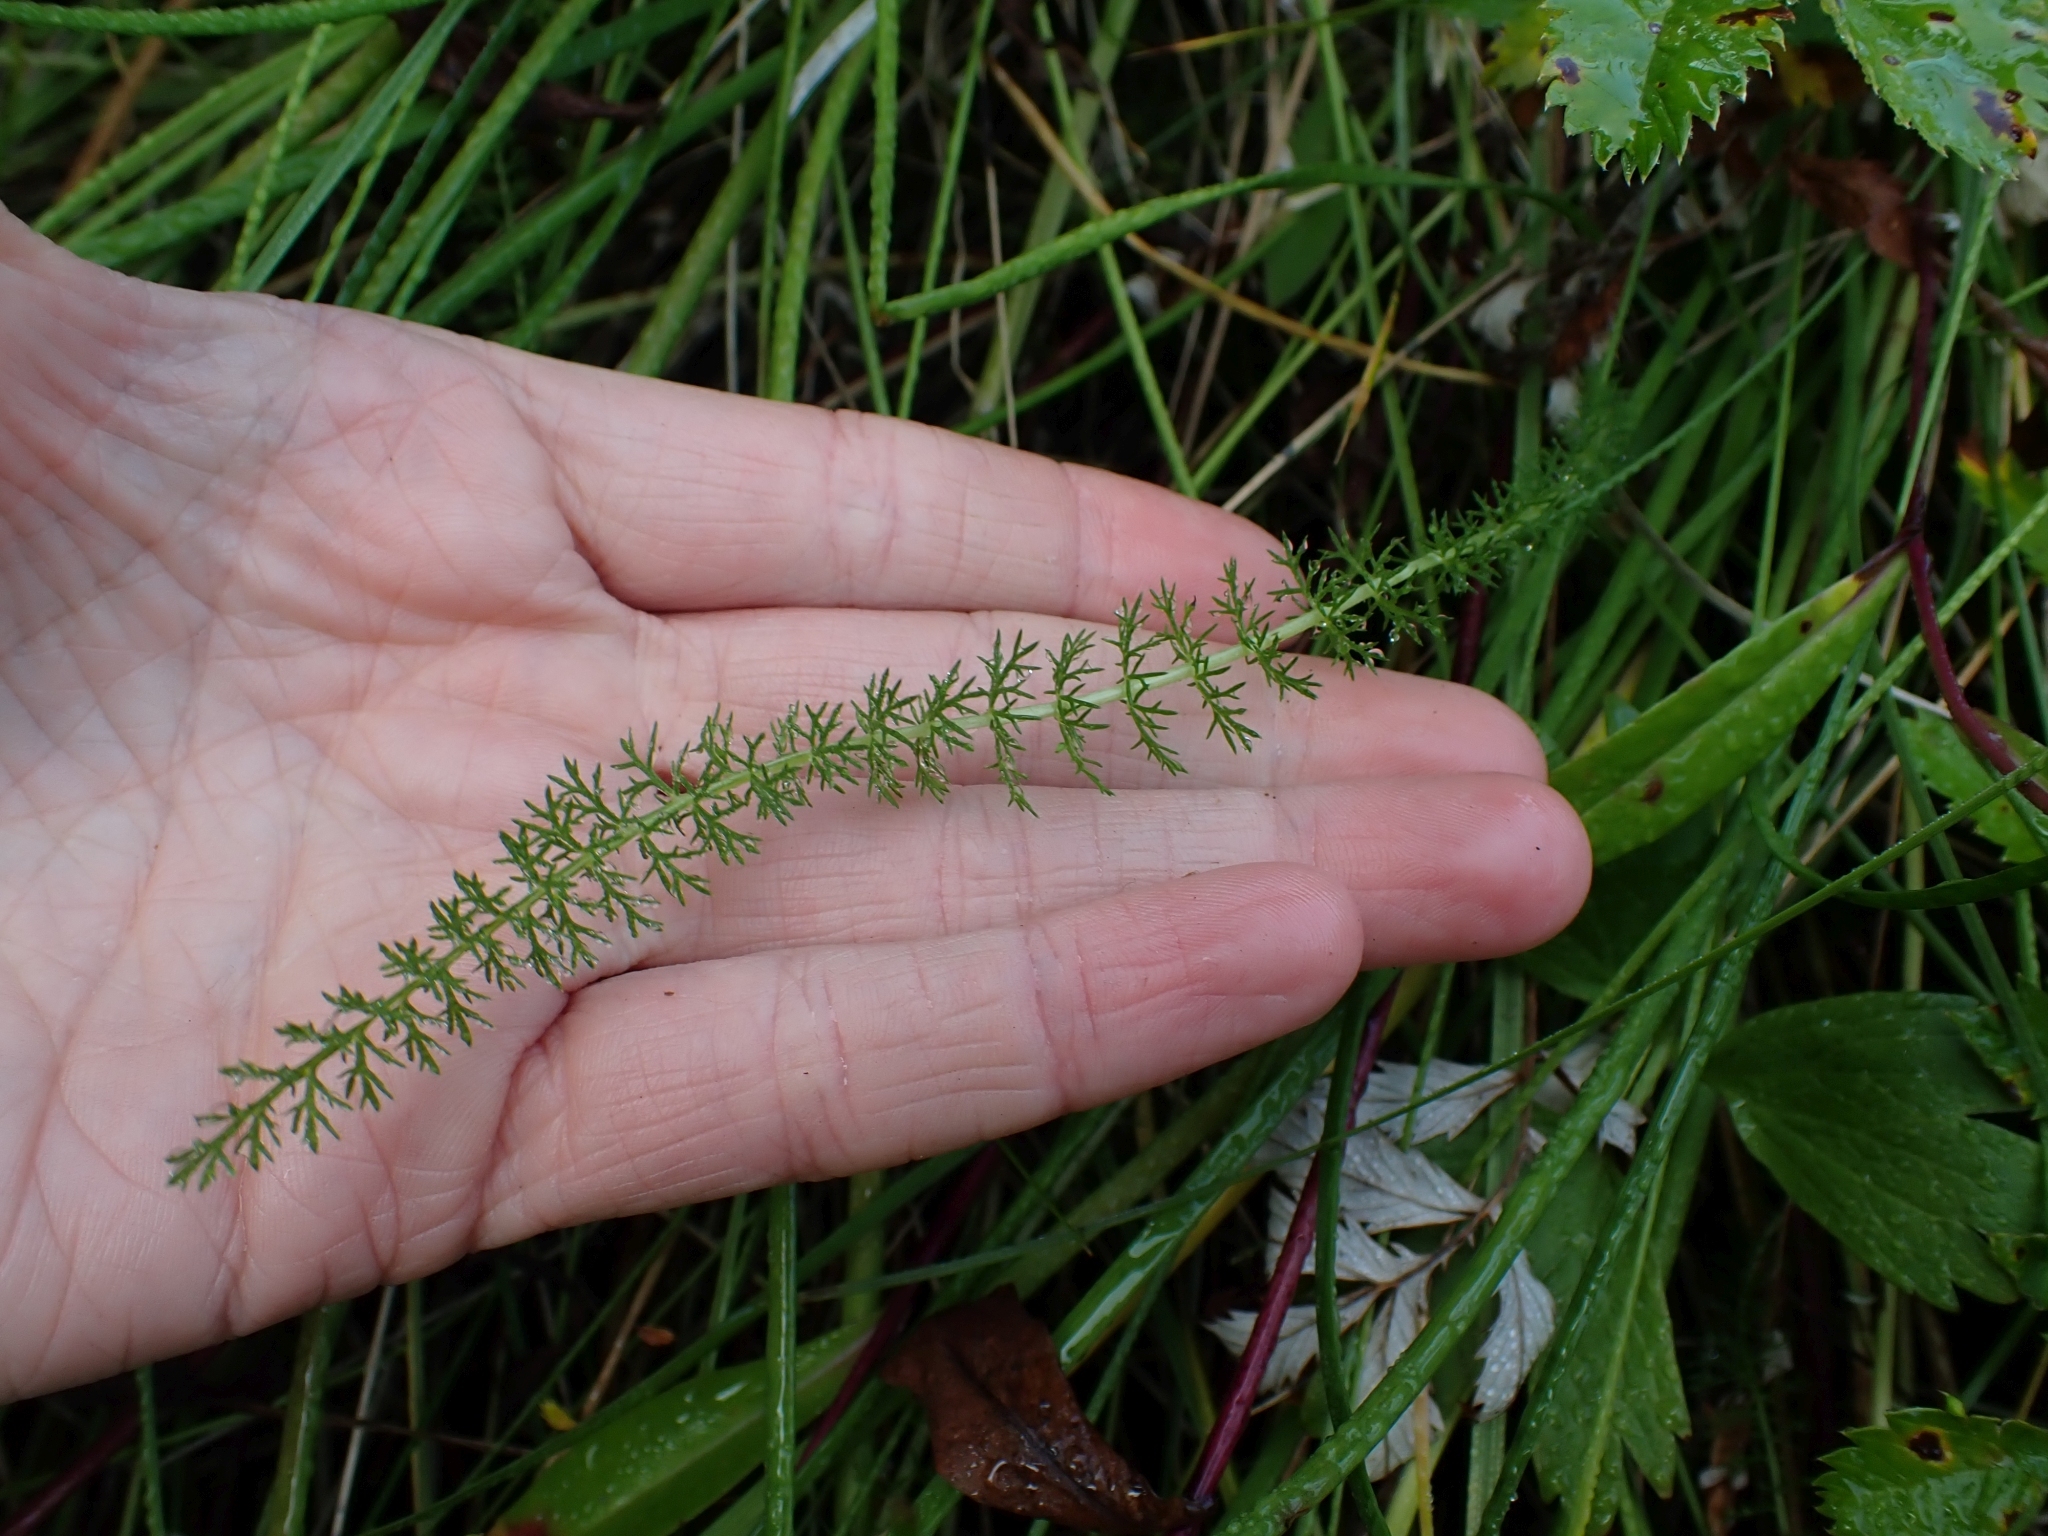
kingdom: Plantae
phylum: Tracheophyta
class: Magnoliopsida
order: Asterales
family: Asteraceae
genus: Achillea
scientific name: Achillea millefolium
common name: Yarrow
